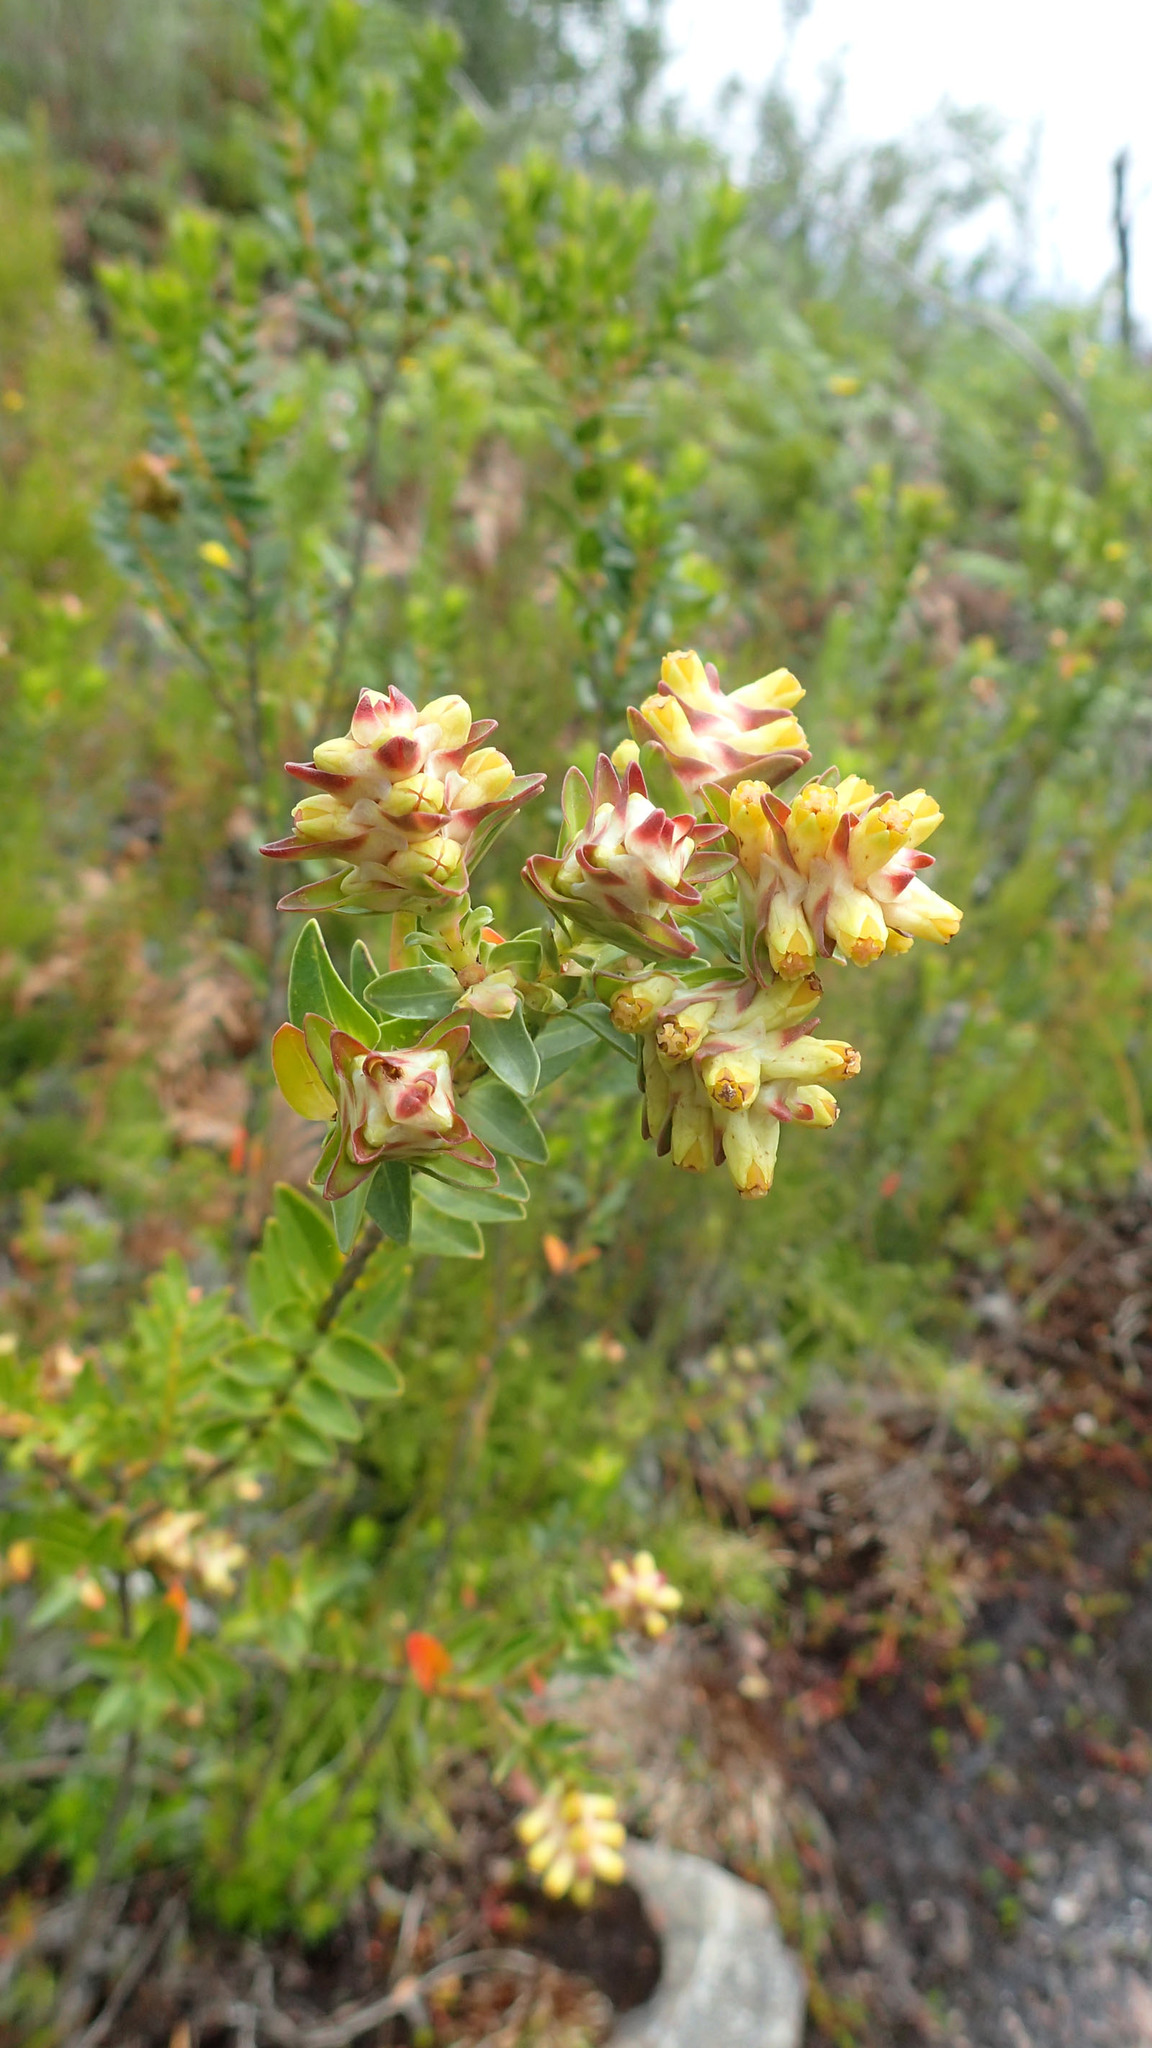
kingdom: Plantae
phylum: Tracheophyta
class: Magnoliopsida
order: Myrtales
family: Penaeaceae
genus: Penaea
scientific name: Penaea cneorum
